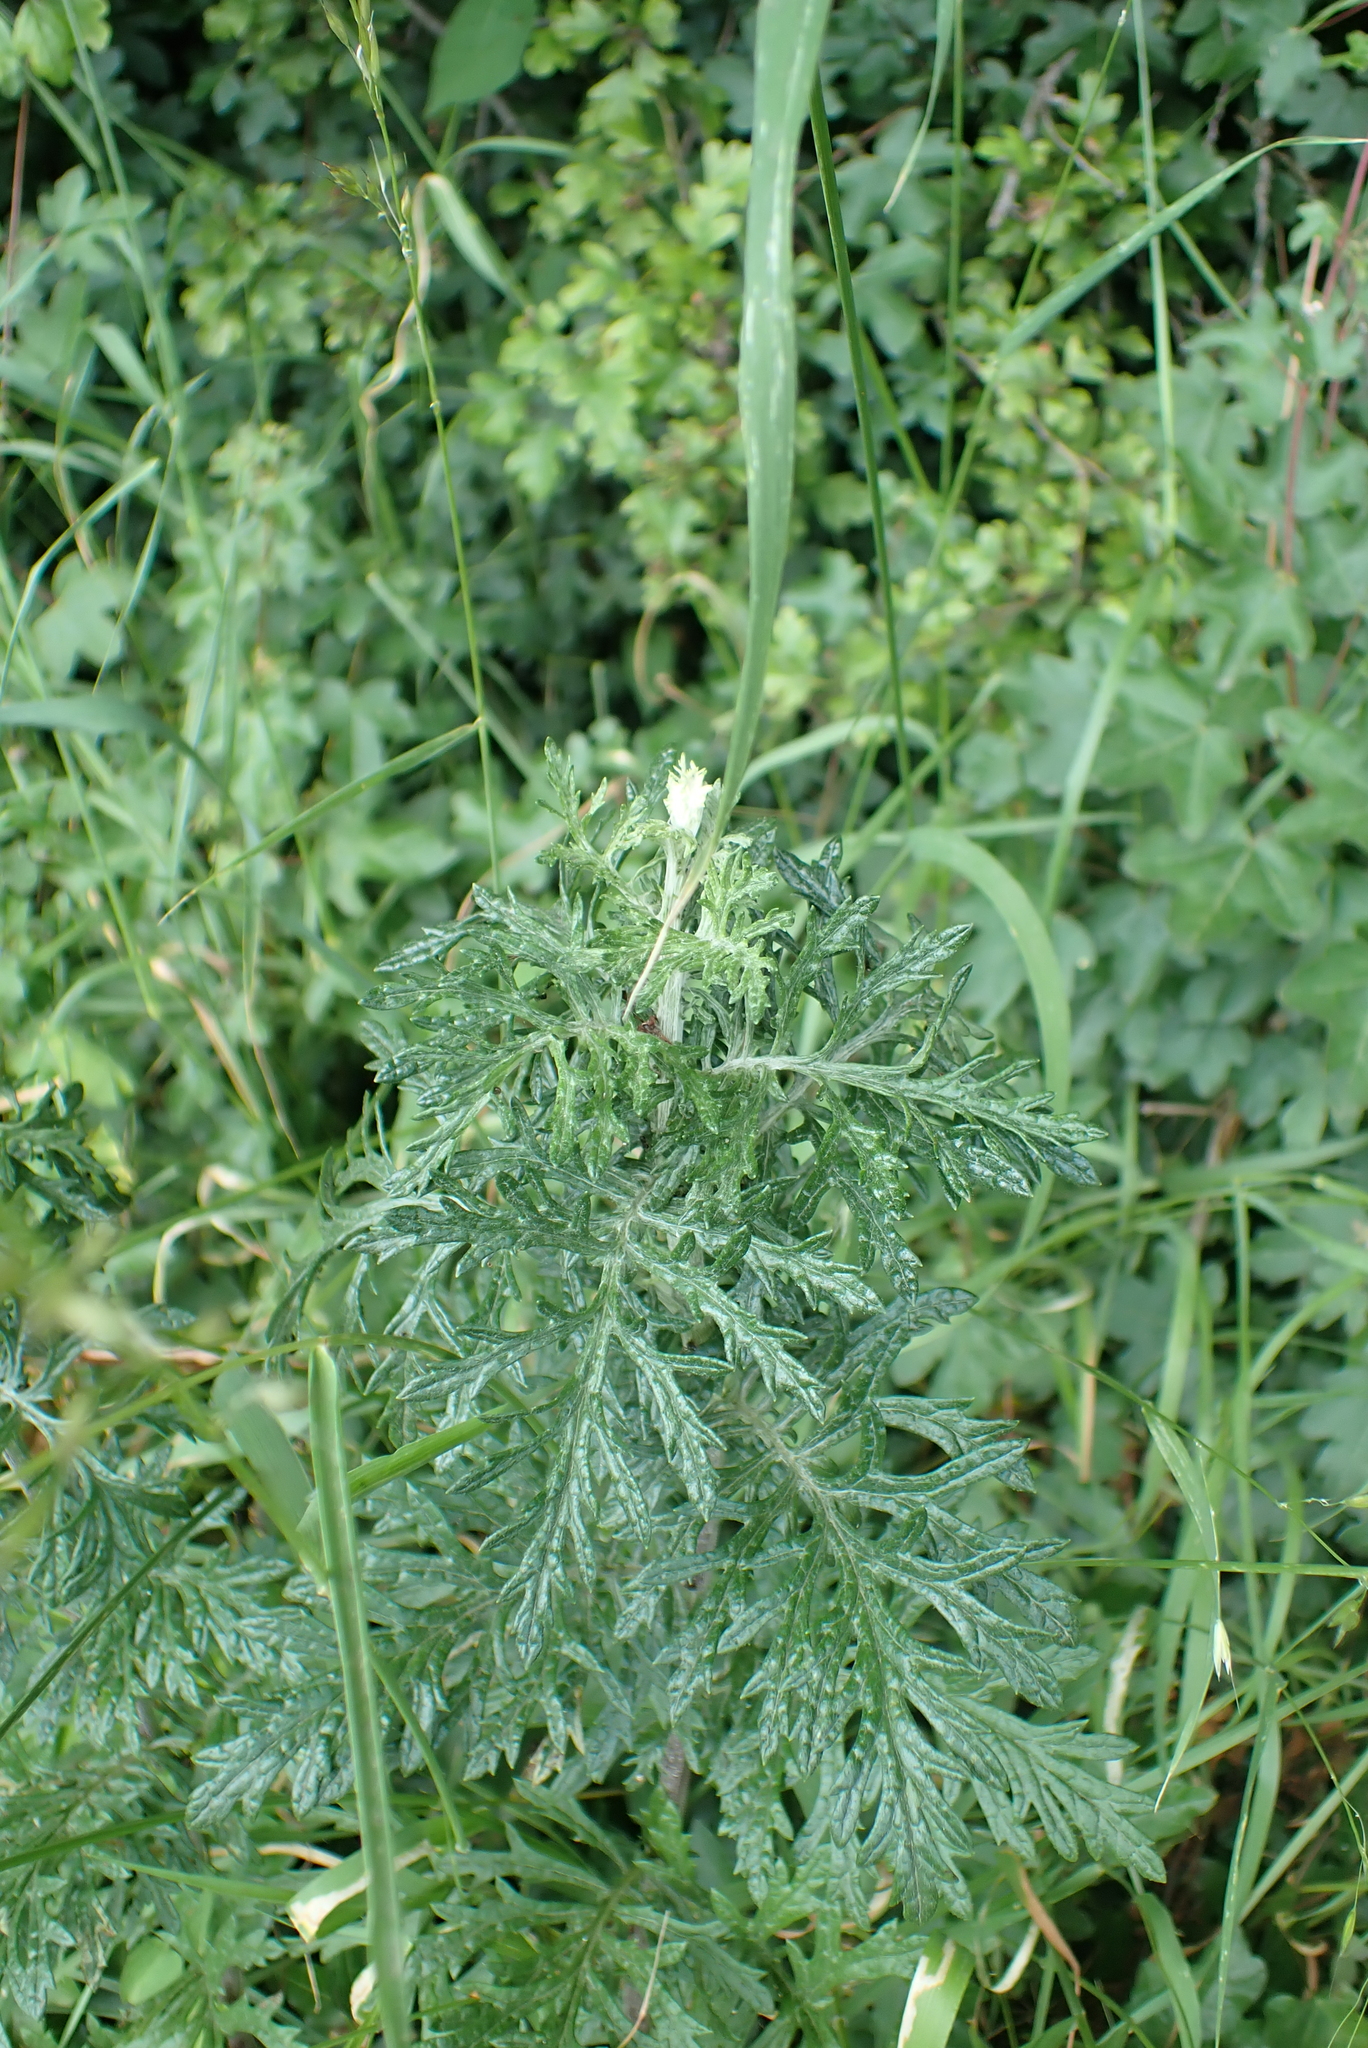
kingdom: Plantae
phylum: Tracheophyta
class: Magnoliopsida
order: Asterales
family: Asteraceae
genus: Jacobaea
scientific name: Jacobaea vulgaris
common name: Stinking willie
